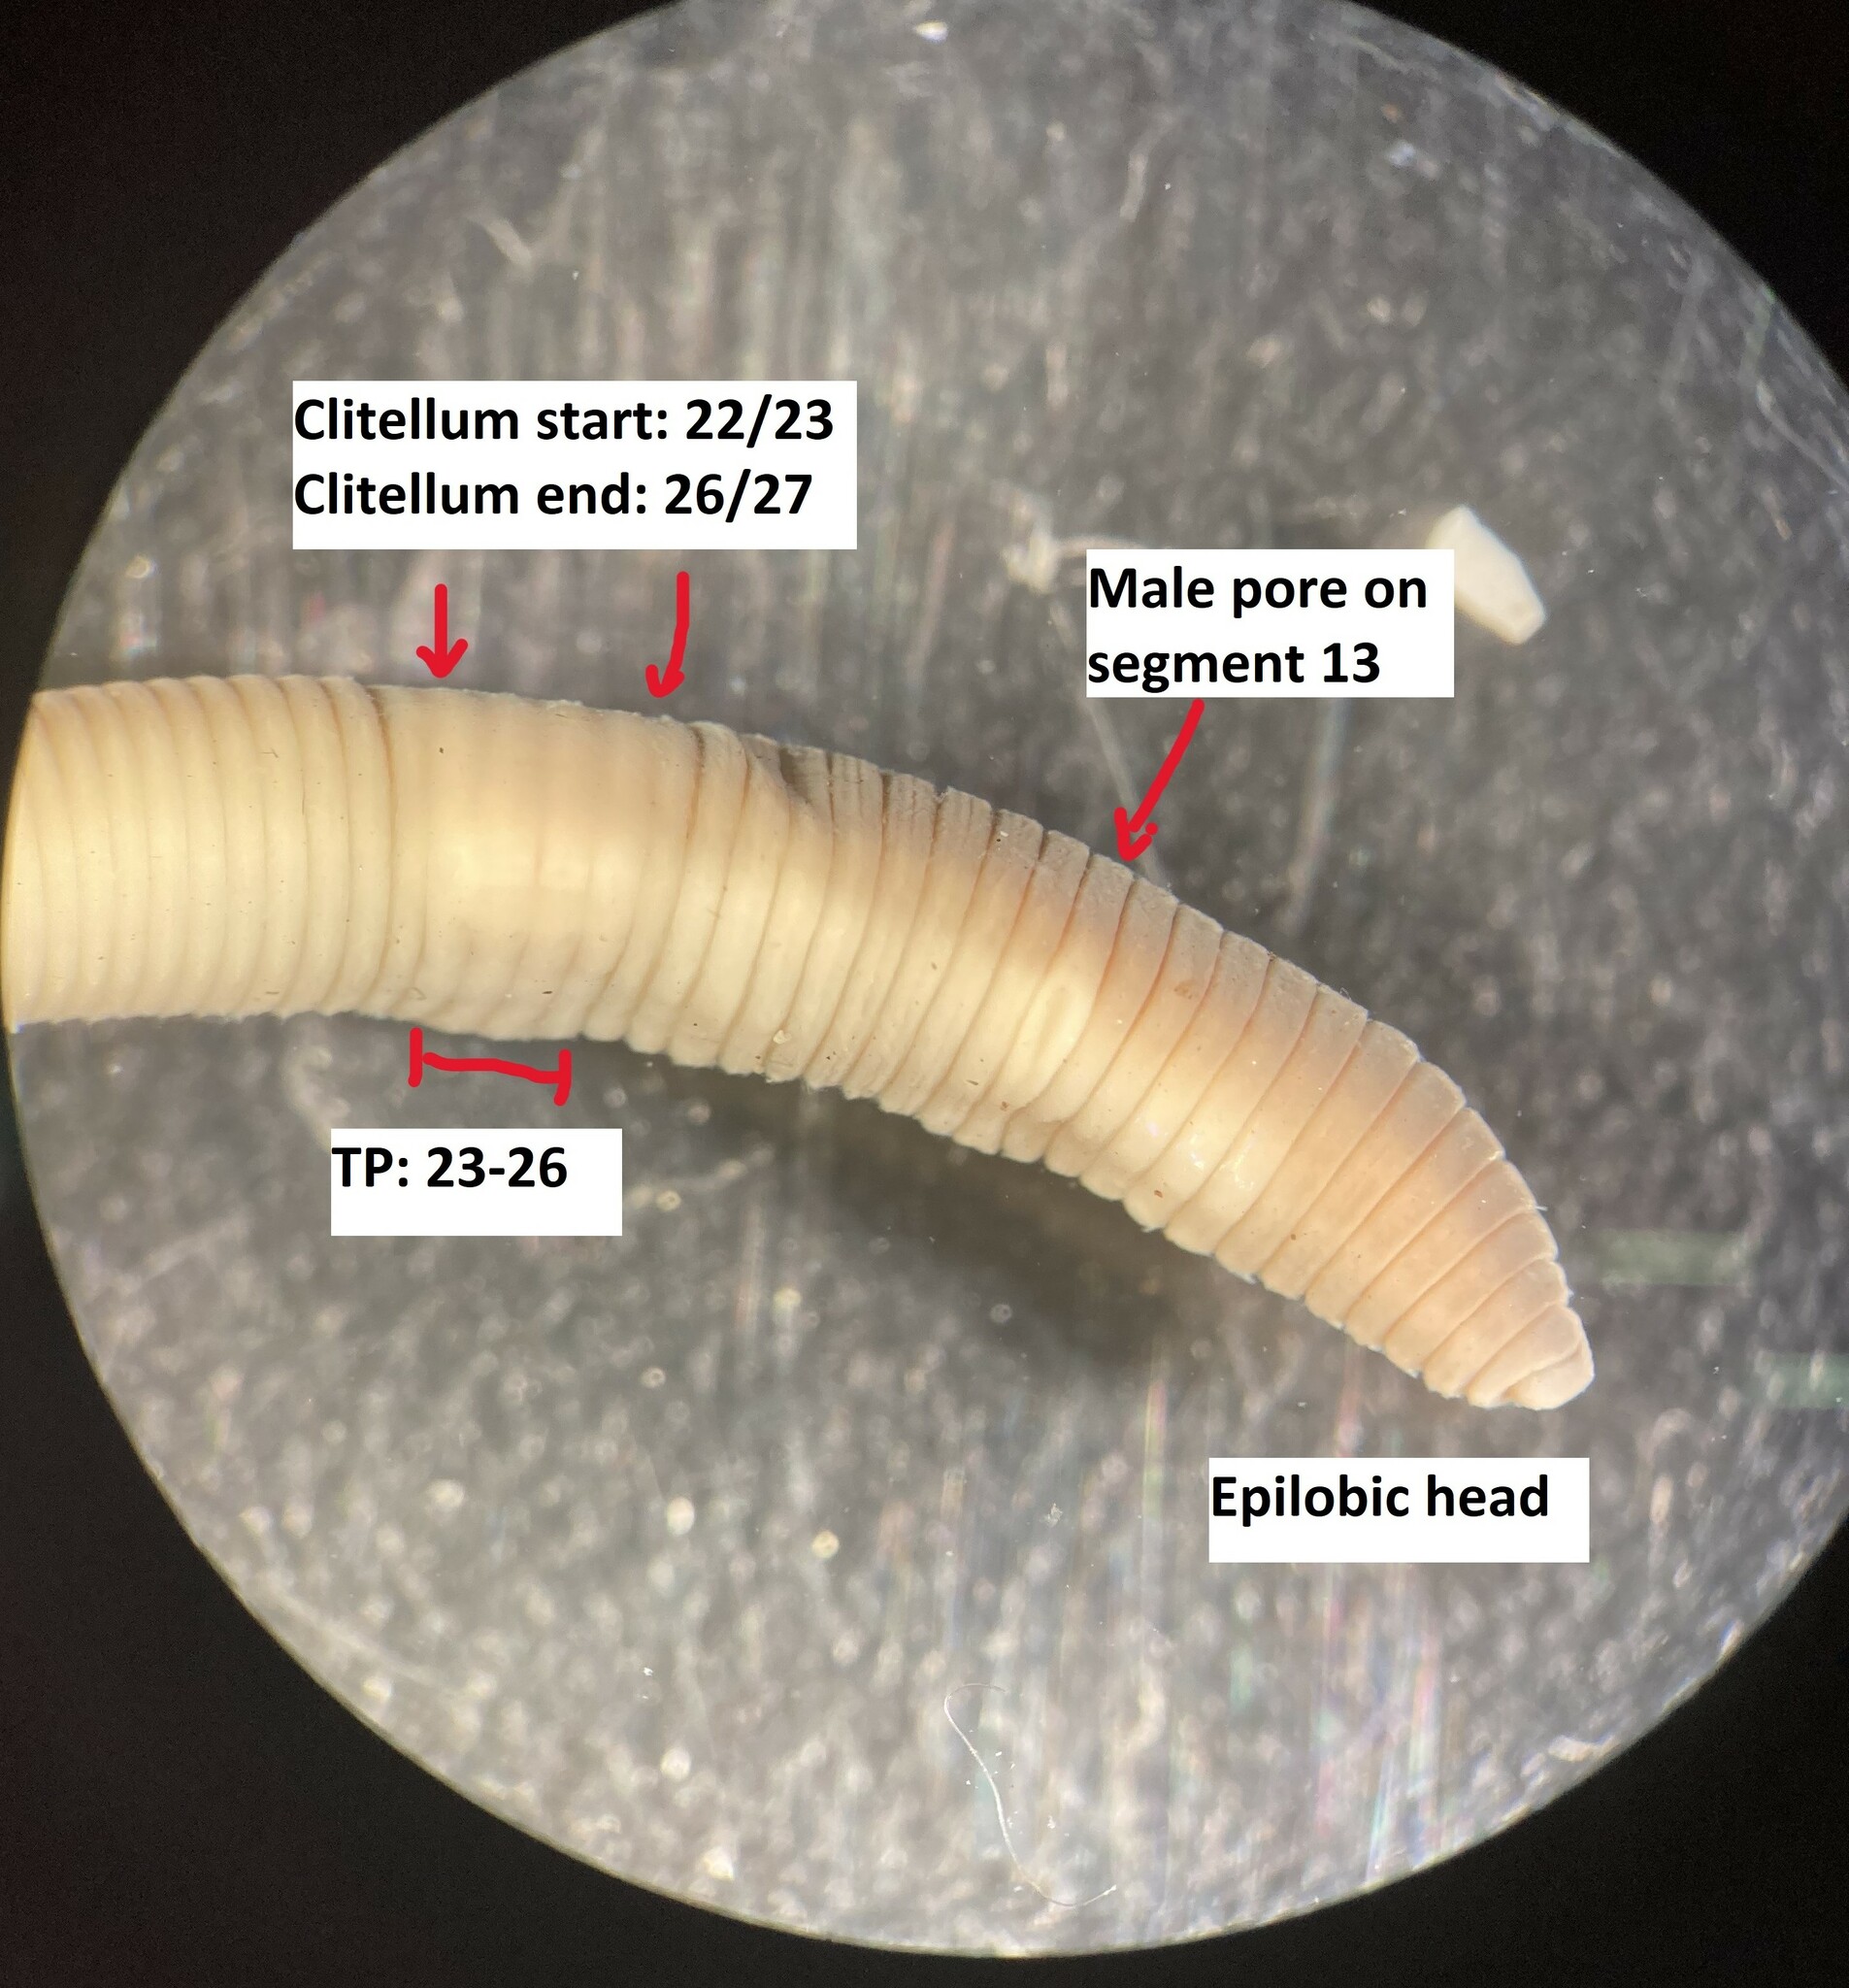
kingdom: Animalia
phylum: Annelida
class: Clitellata
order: Crassiclitellata
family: Lumbricidae
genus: Eiseniella
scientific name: Eiseniella tetraedra
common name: Square-tailed worm
